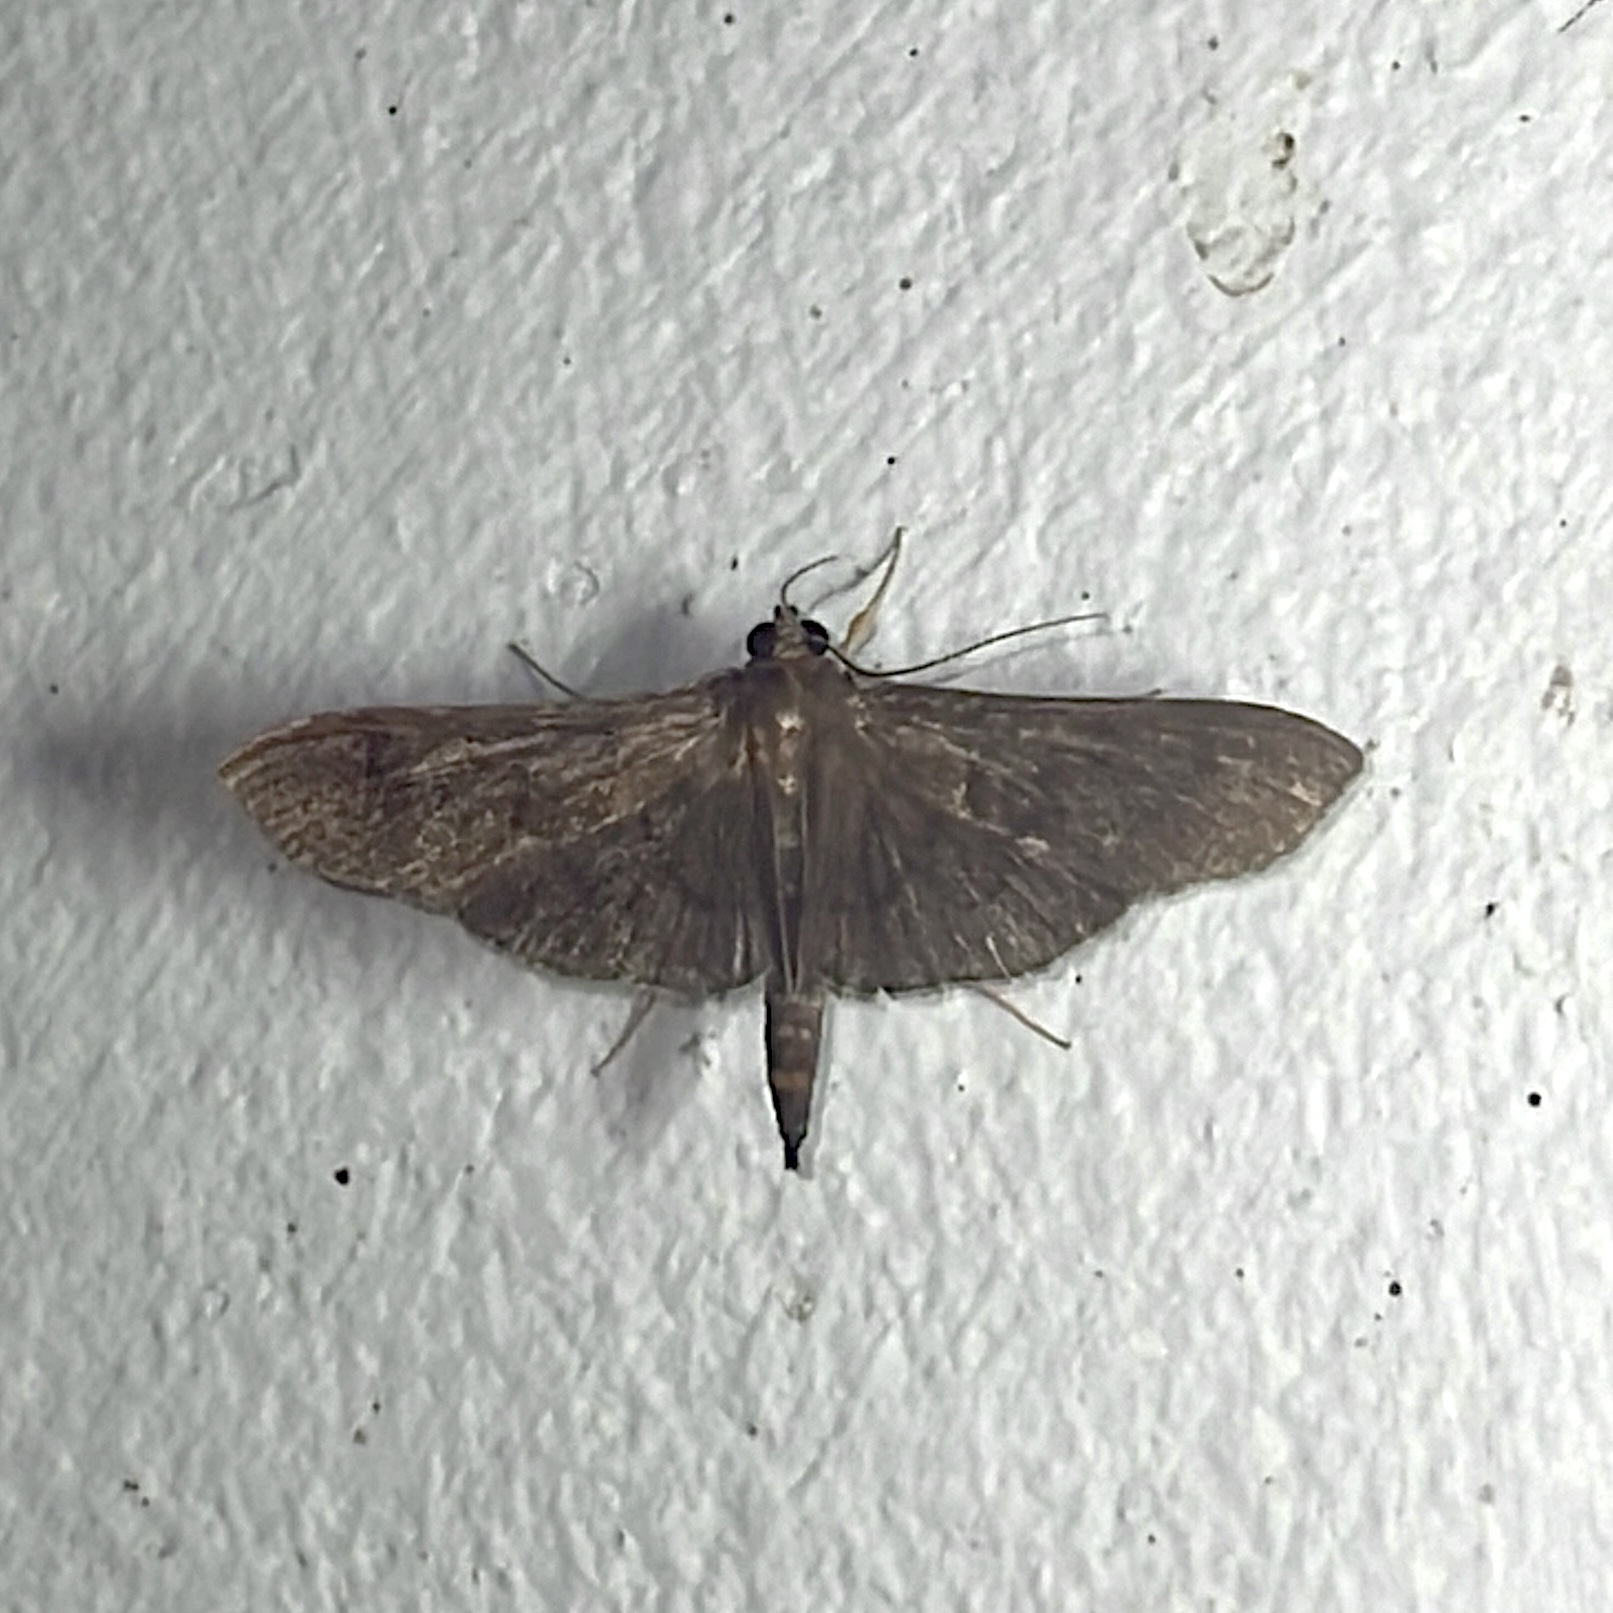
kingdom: Animalia
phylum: Arthropoda
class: Insecta
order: Lepidoptera
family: Crambidae
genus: Omiodes
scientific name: Omiodes humeralis
